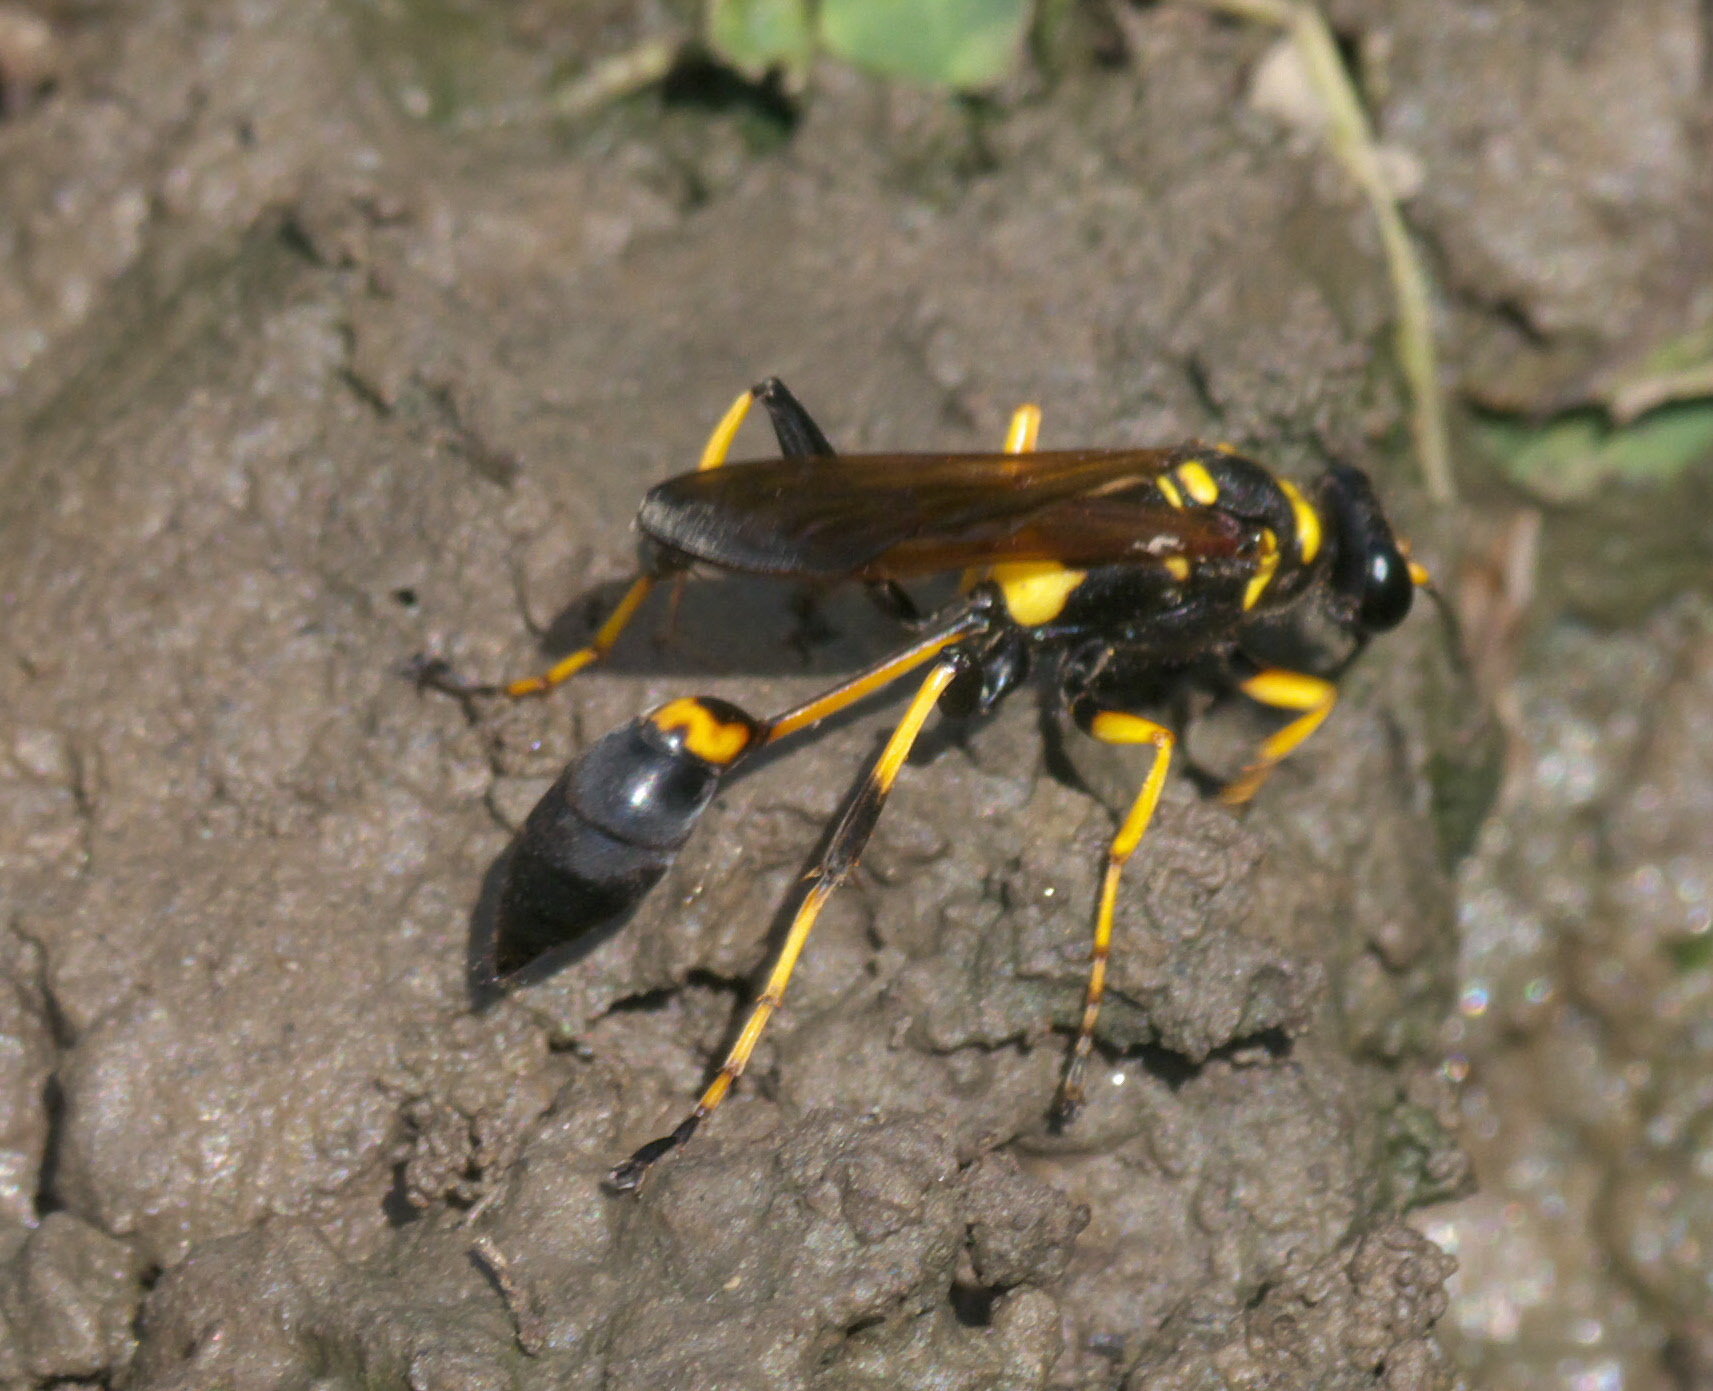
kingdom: Animalia
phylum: Arthropoda
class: Insecta
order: Hymenoptera
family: Sphecidae
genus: Sceliphron
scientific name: Sceliphron caementarium
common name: Mud dauber
